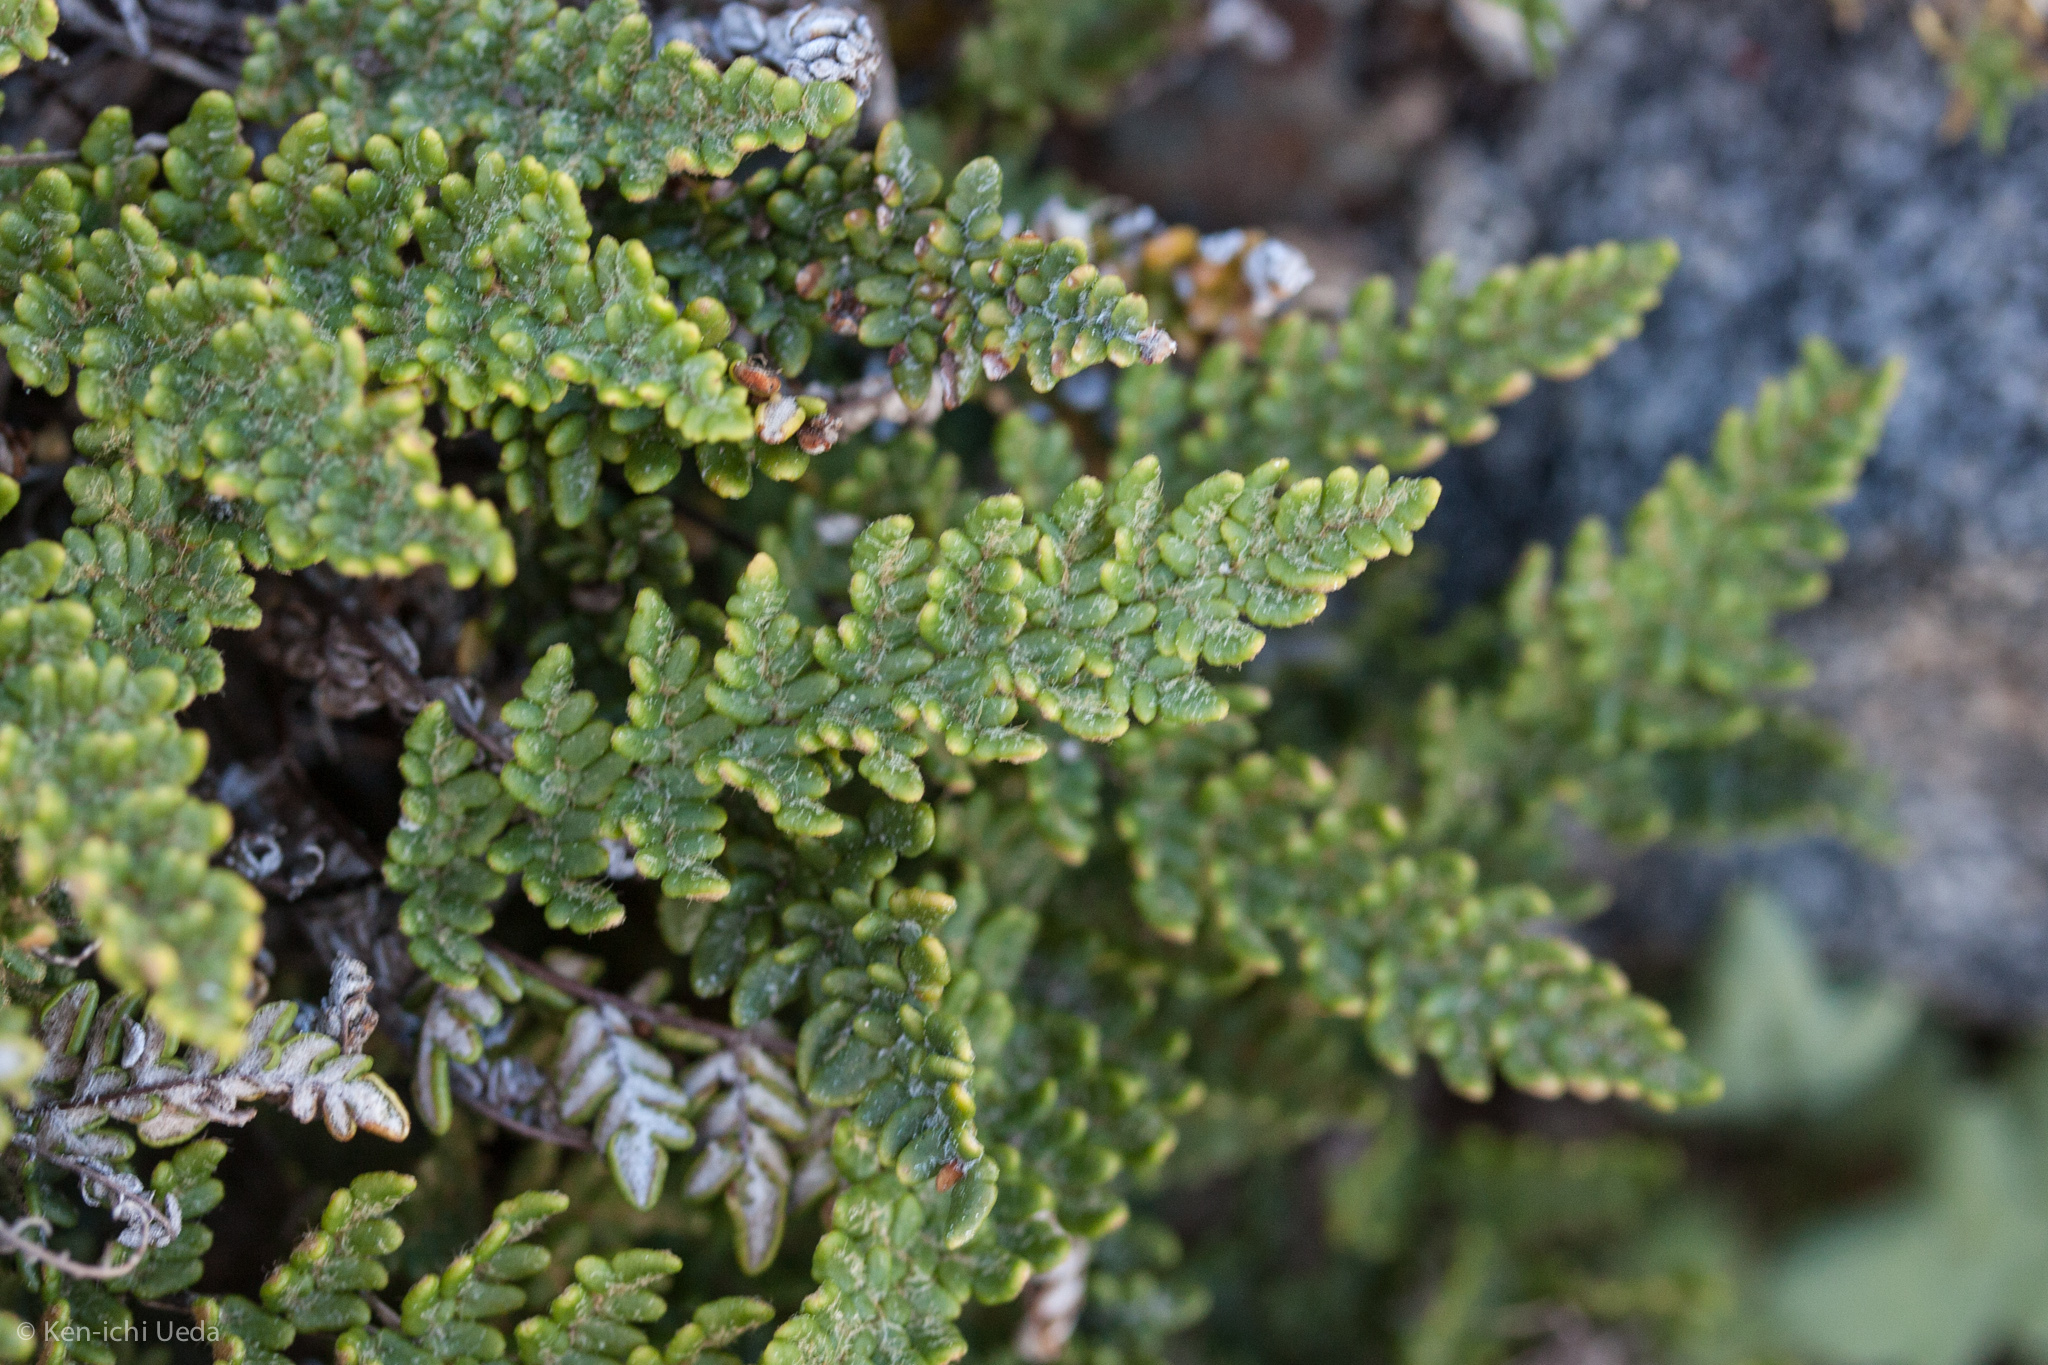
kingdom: Plantae
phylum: Tracheophyta
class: Polypodiopsida
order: Polypodiales
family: Pteridaceae
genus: Myriopteris
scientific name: Myriopteris gracillima
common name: Lace fern
